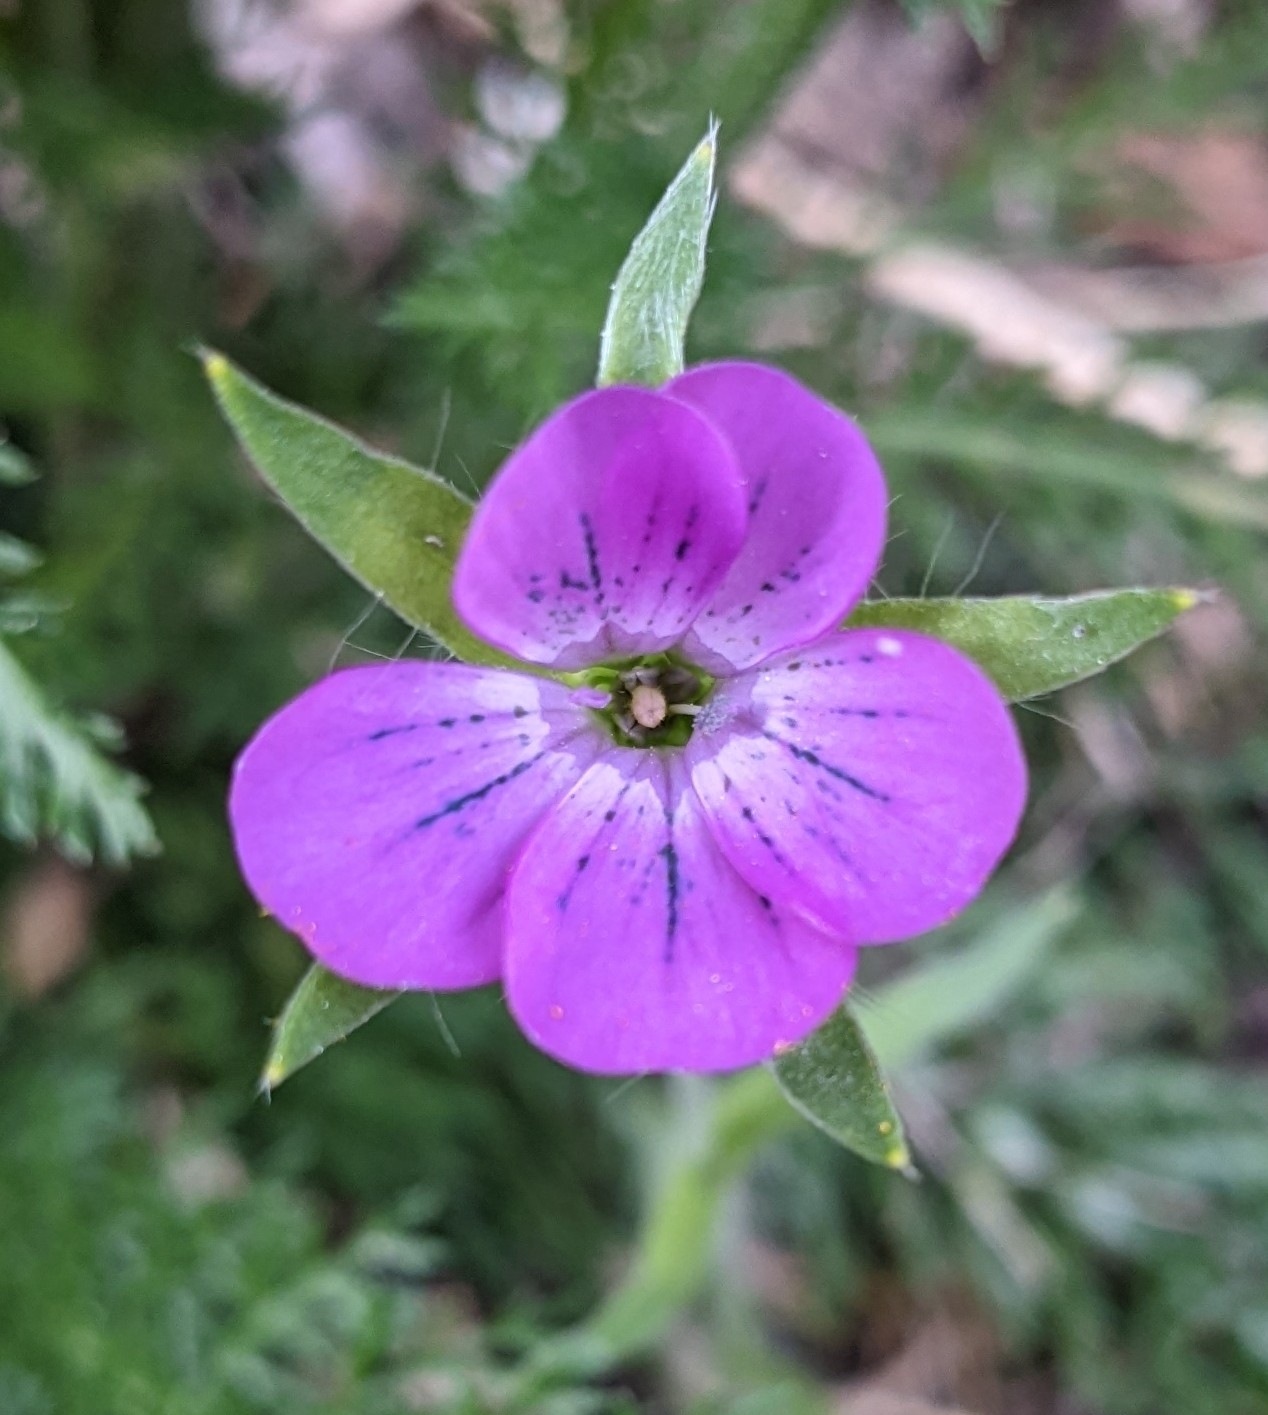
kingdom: Plantae
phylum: Tracheophyta
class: Magnoliopsida
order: Caryophyllales
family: Caryophyllaceae
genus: Agrostemma
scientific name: Agrostemma githago
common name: Common corncockle
